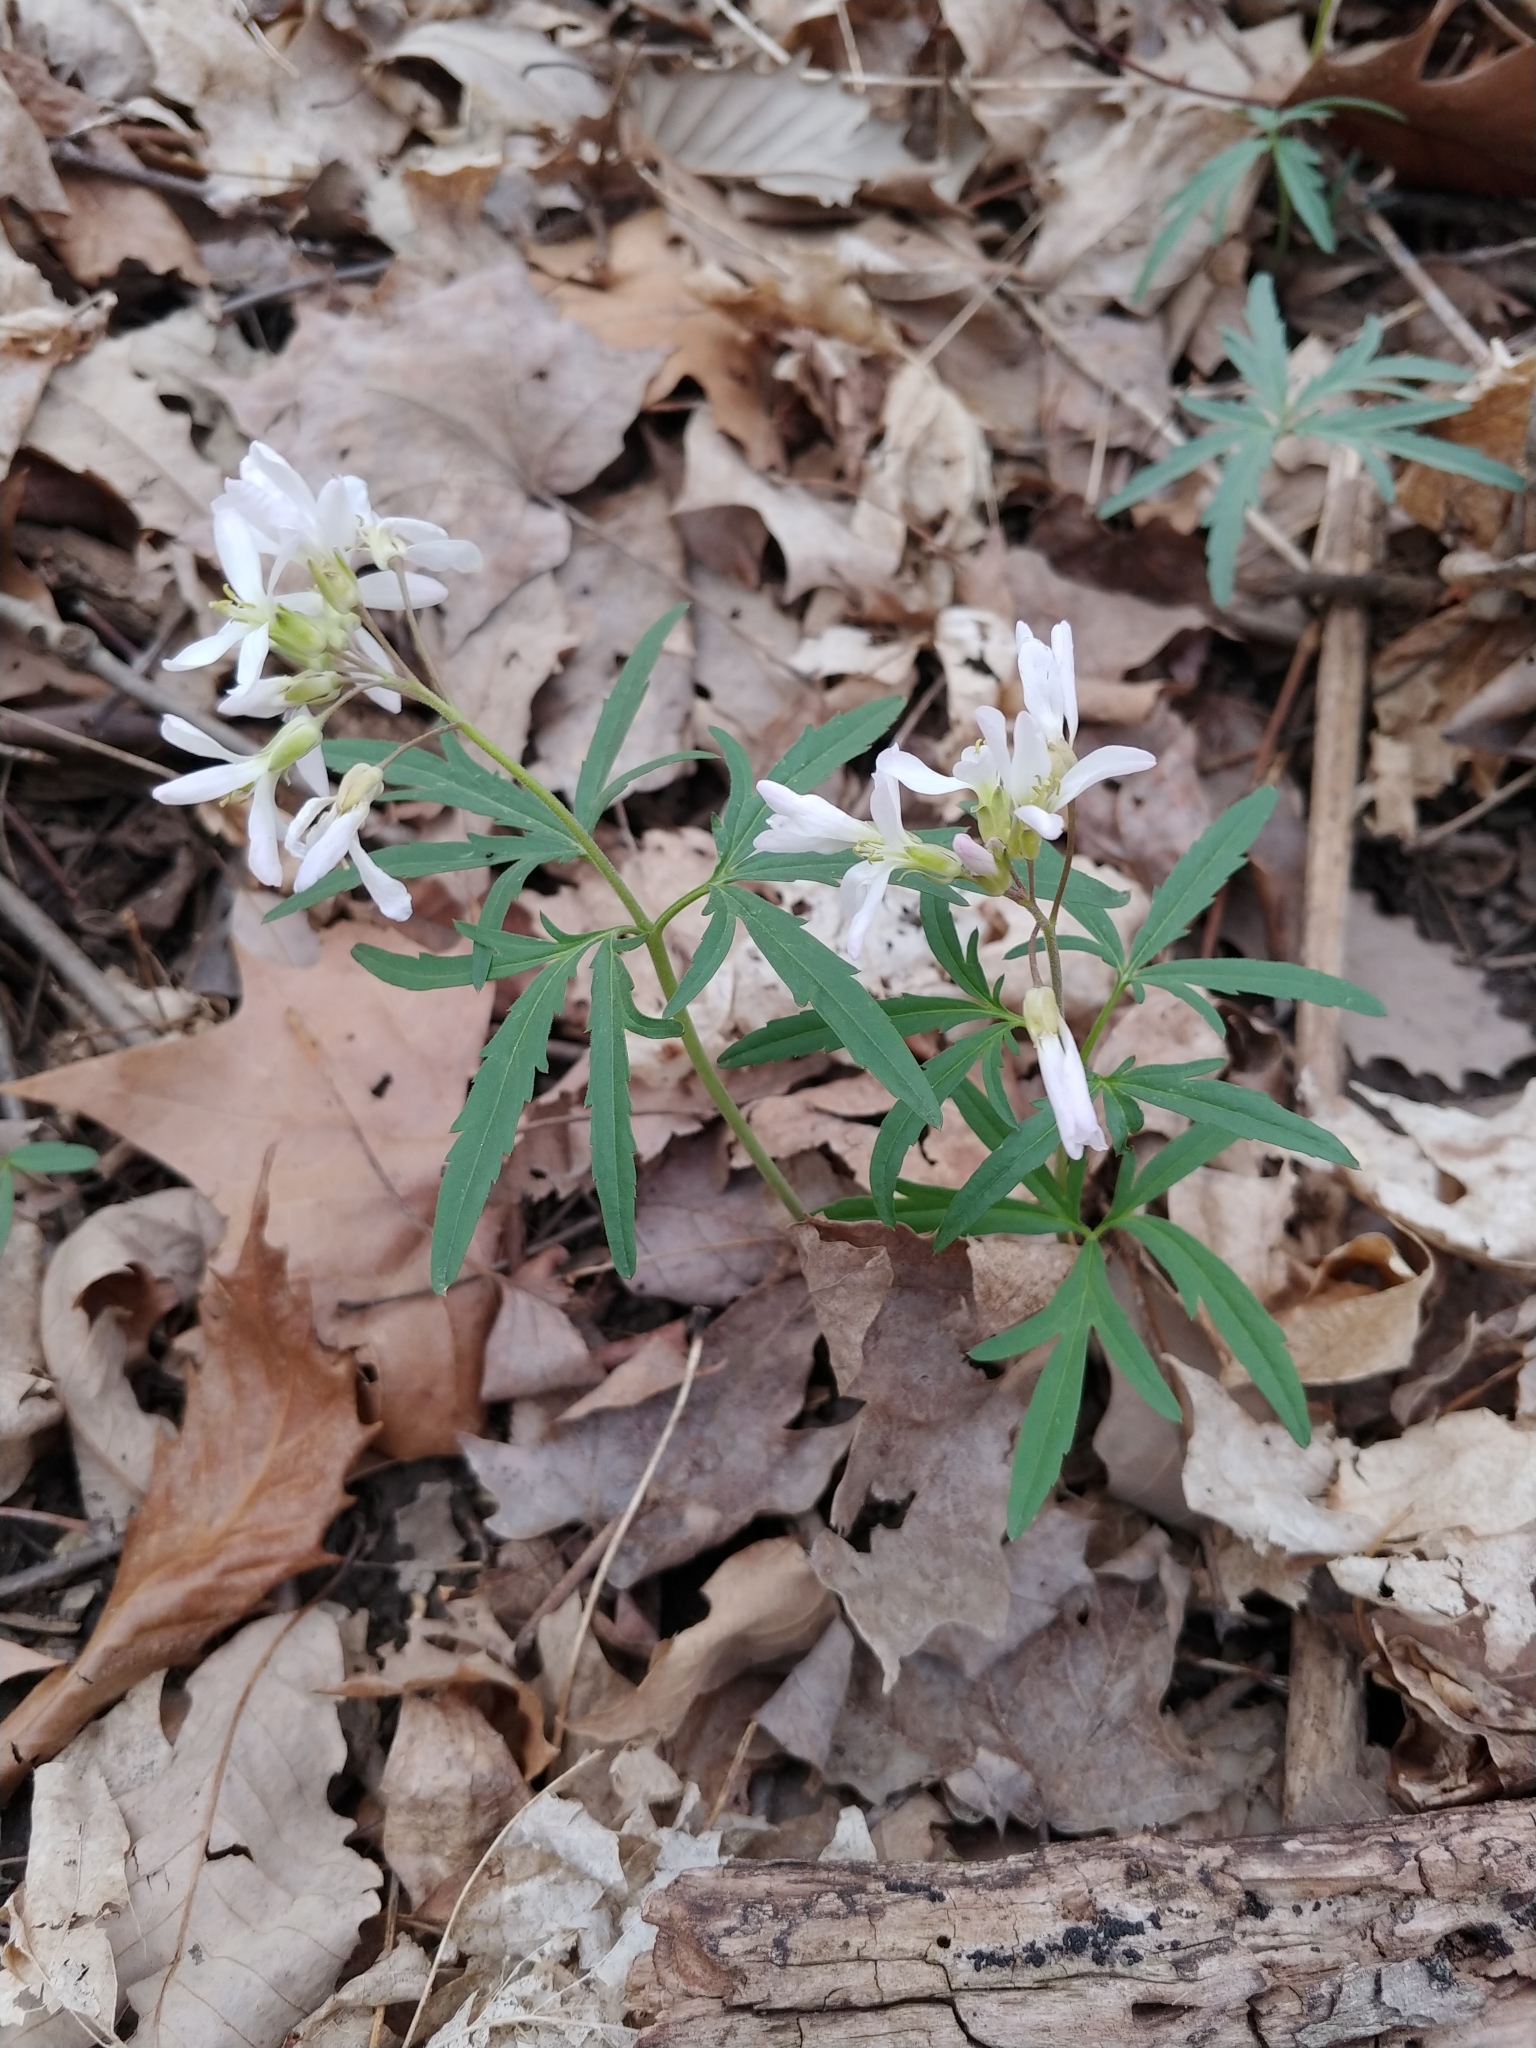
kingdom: Plantae
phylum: Tracheophyta
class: Magnoliopsida
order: Brassicales
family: Brassicaceae
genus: Cardamine
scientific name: Cardamine concatenata
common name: Cut-leaf toothcup
